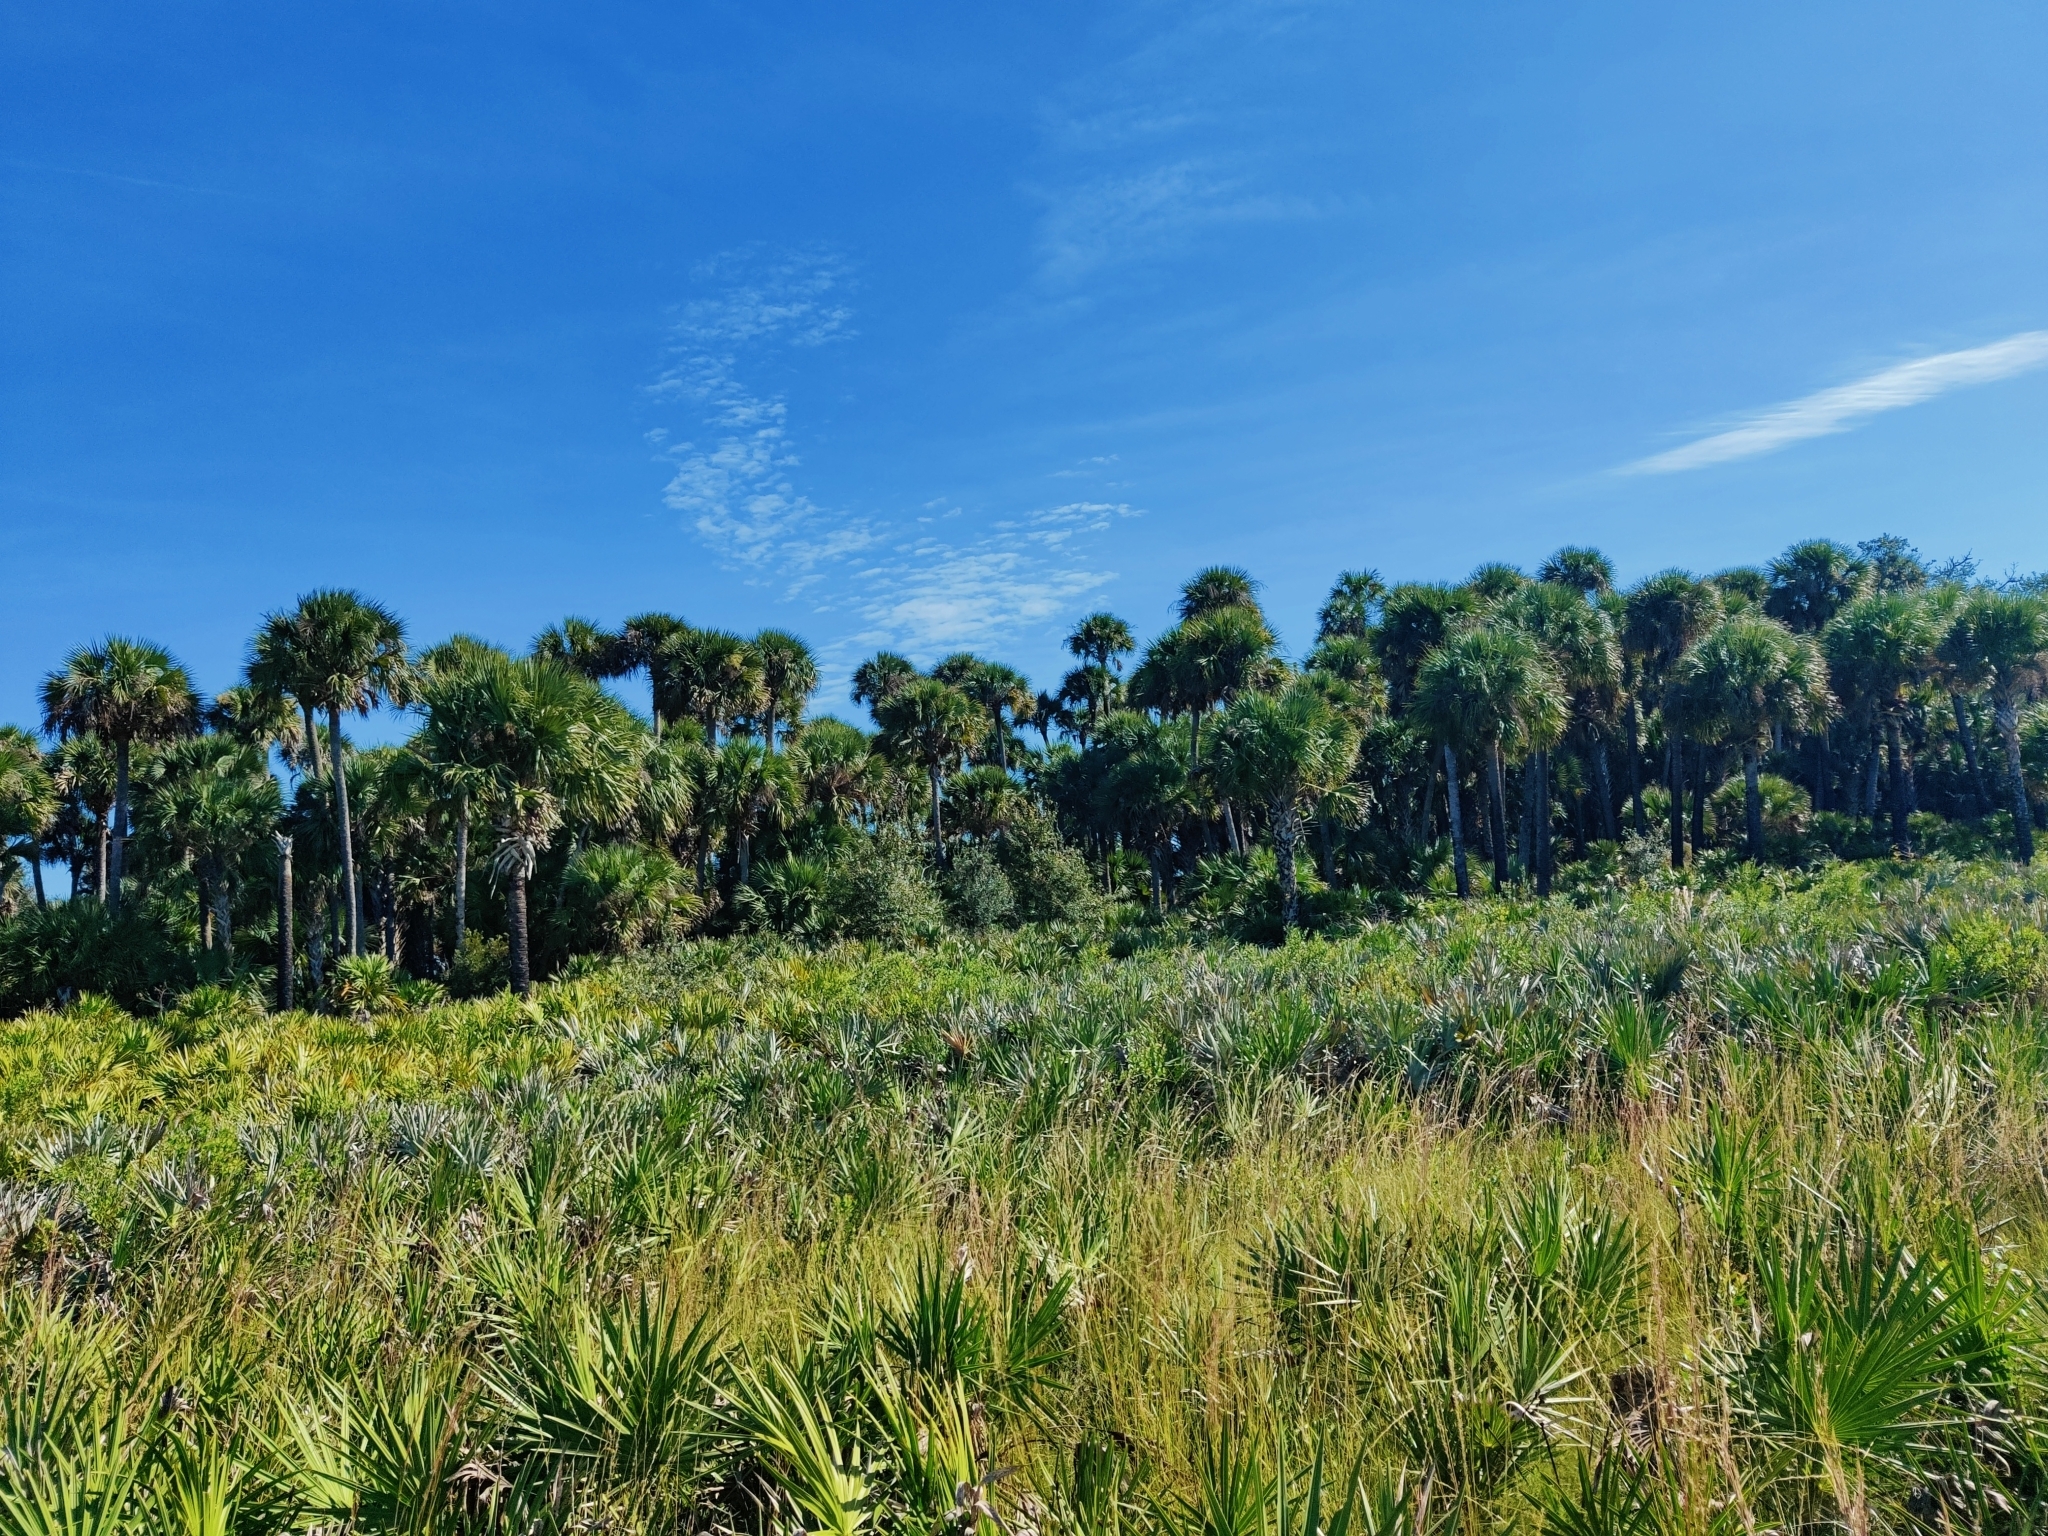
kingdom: Plantae
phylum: Tracheophyta
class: Liliopsida
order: Arecales
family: Arecaceae
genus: Sabal
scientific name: Sabal palmetto
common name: Blue palmetto
